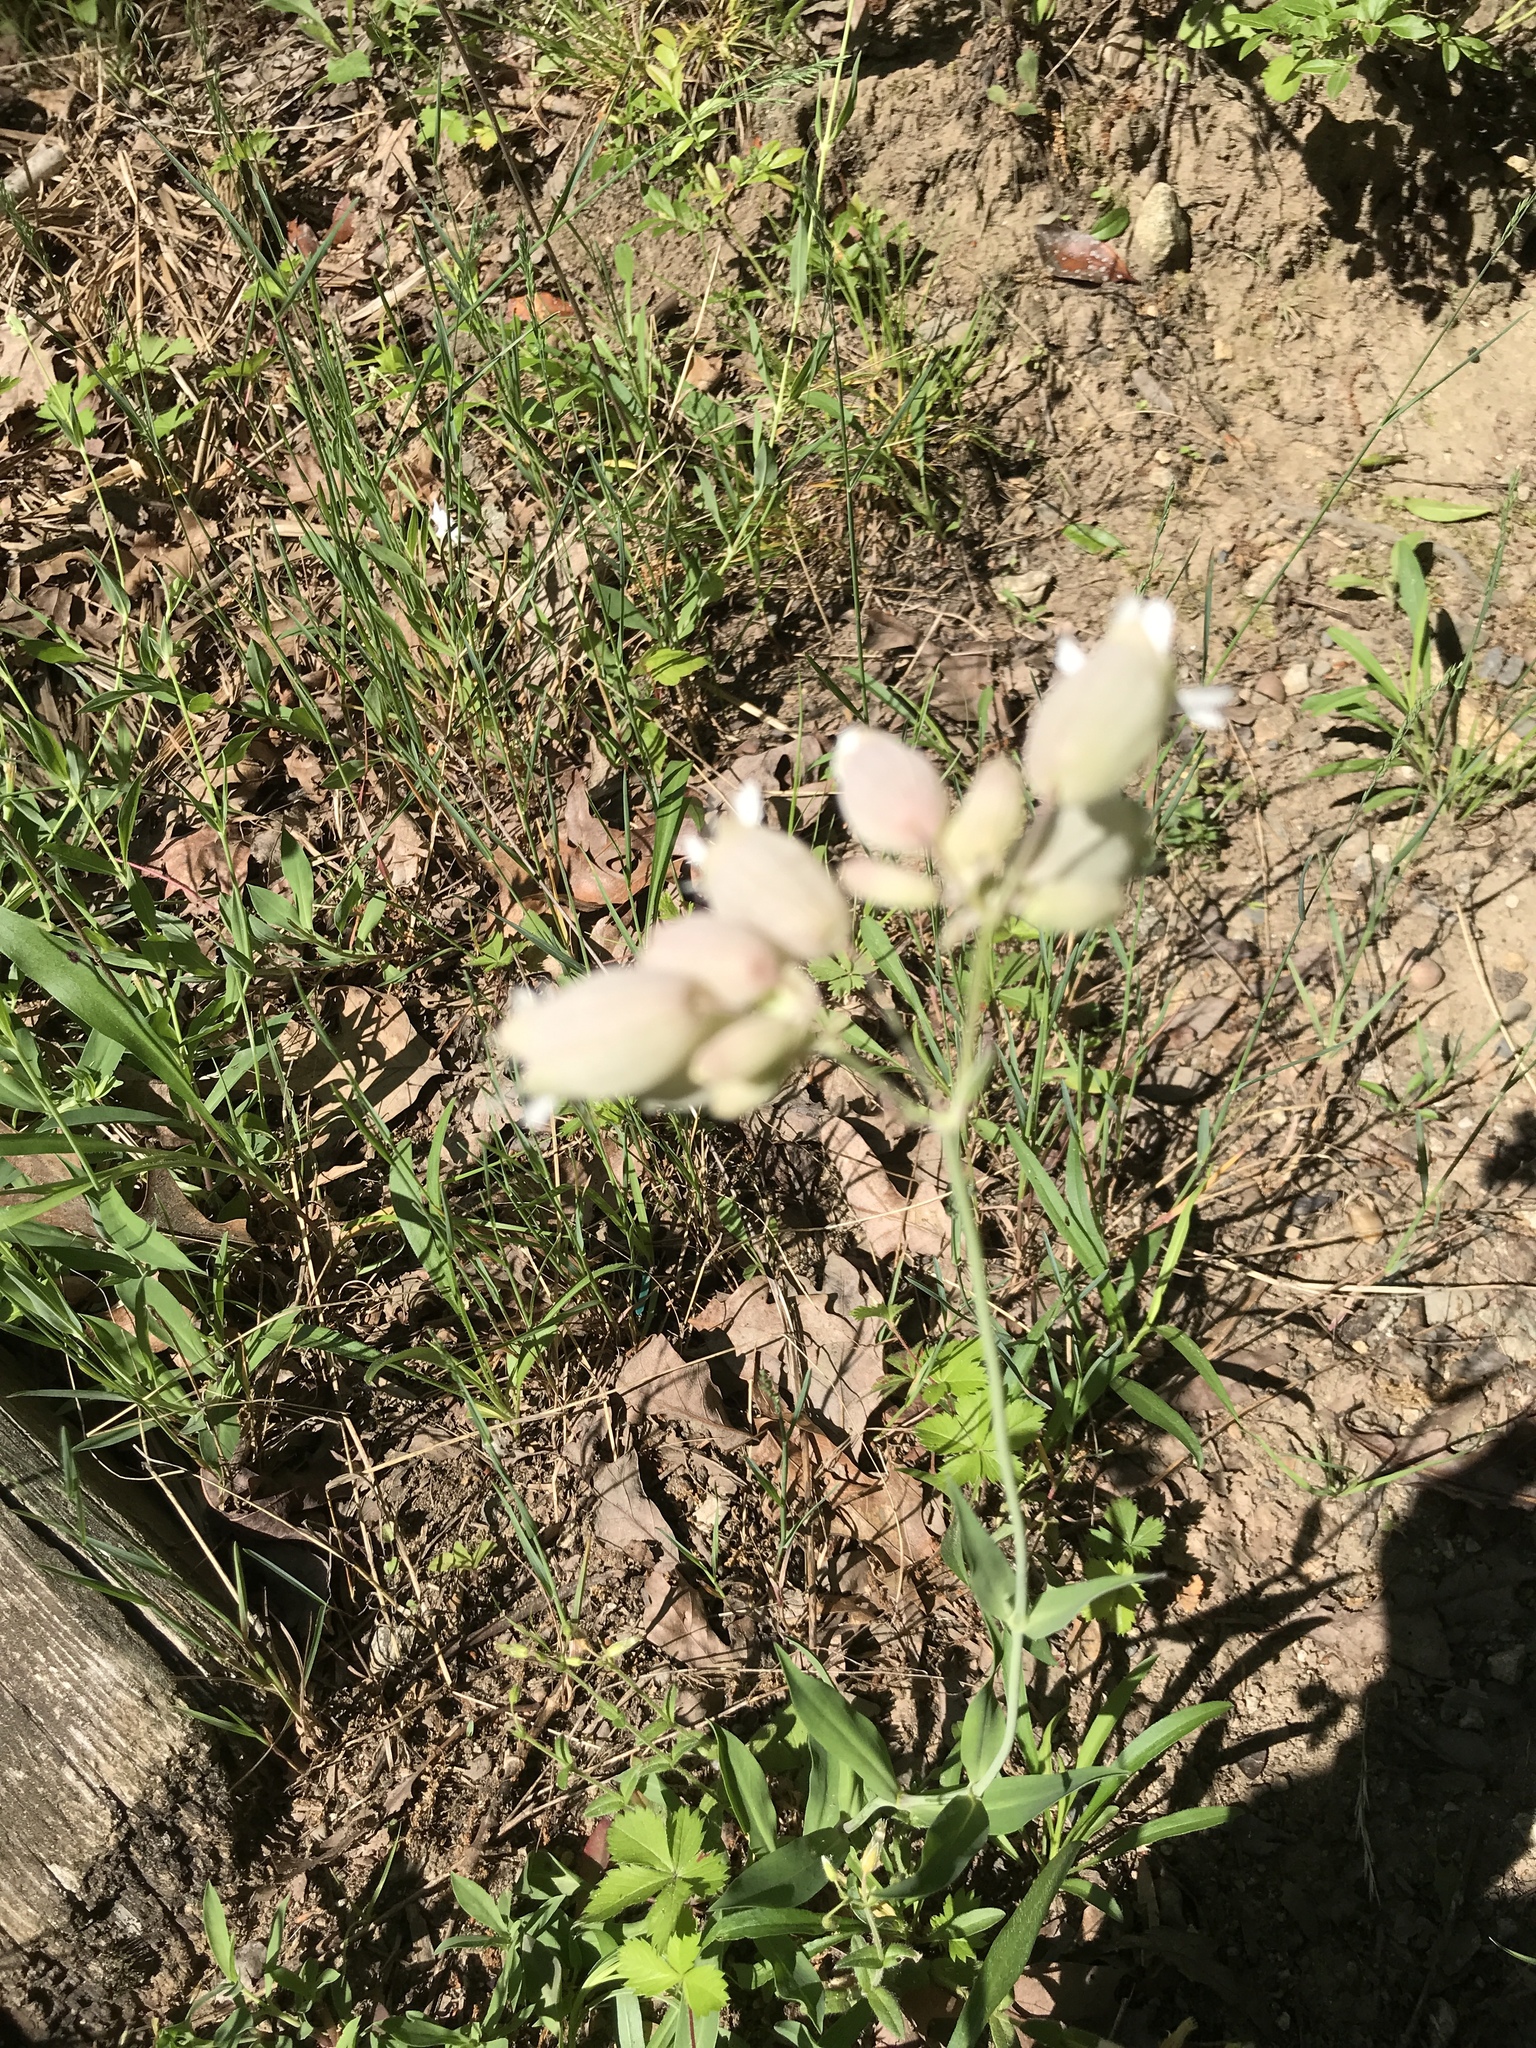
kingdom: Plantae
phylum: Tracheophyta
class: Magnoliopsida
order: Caryophyllales
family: Caryophyllaceae
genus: Silene
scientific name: Silene vulgaris
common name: Bladder campion
